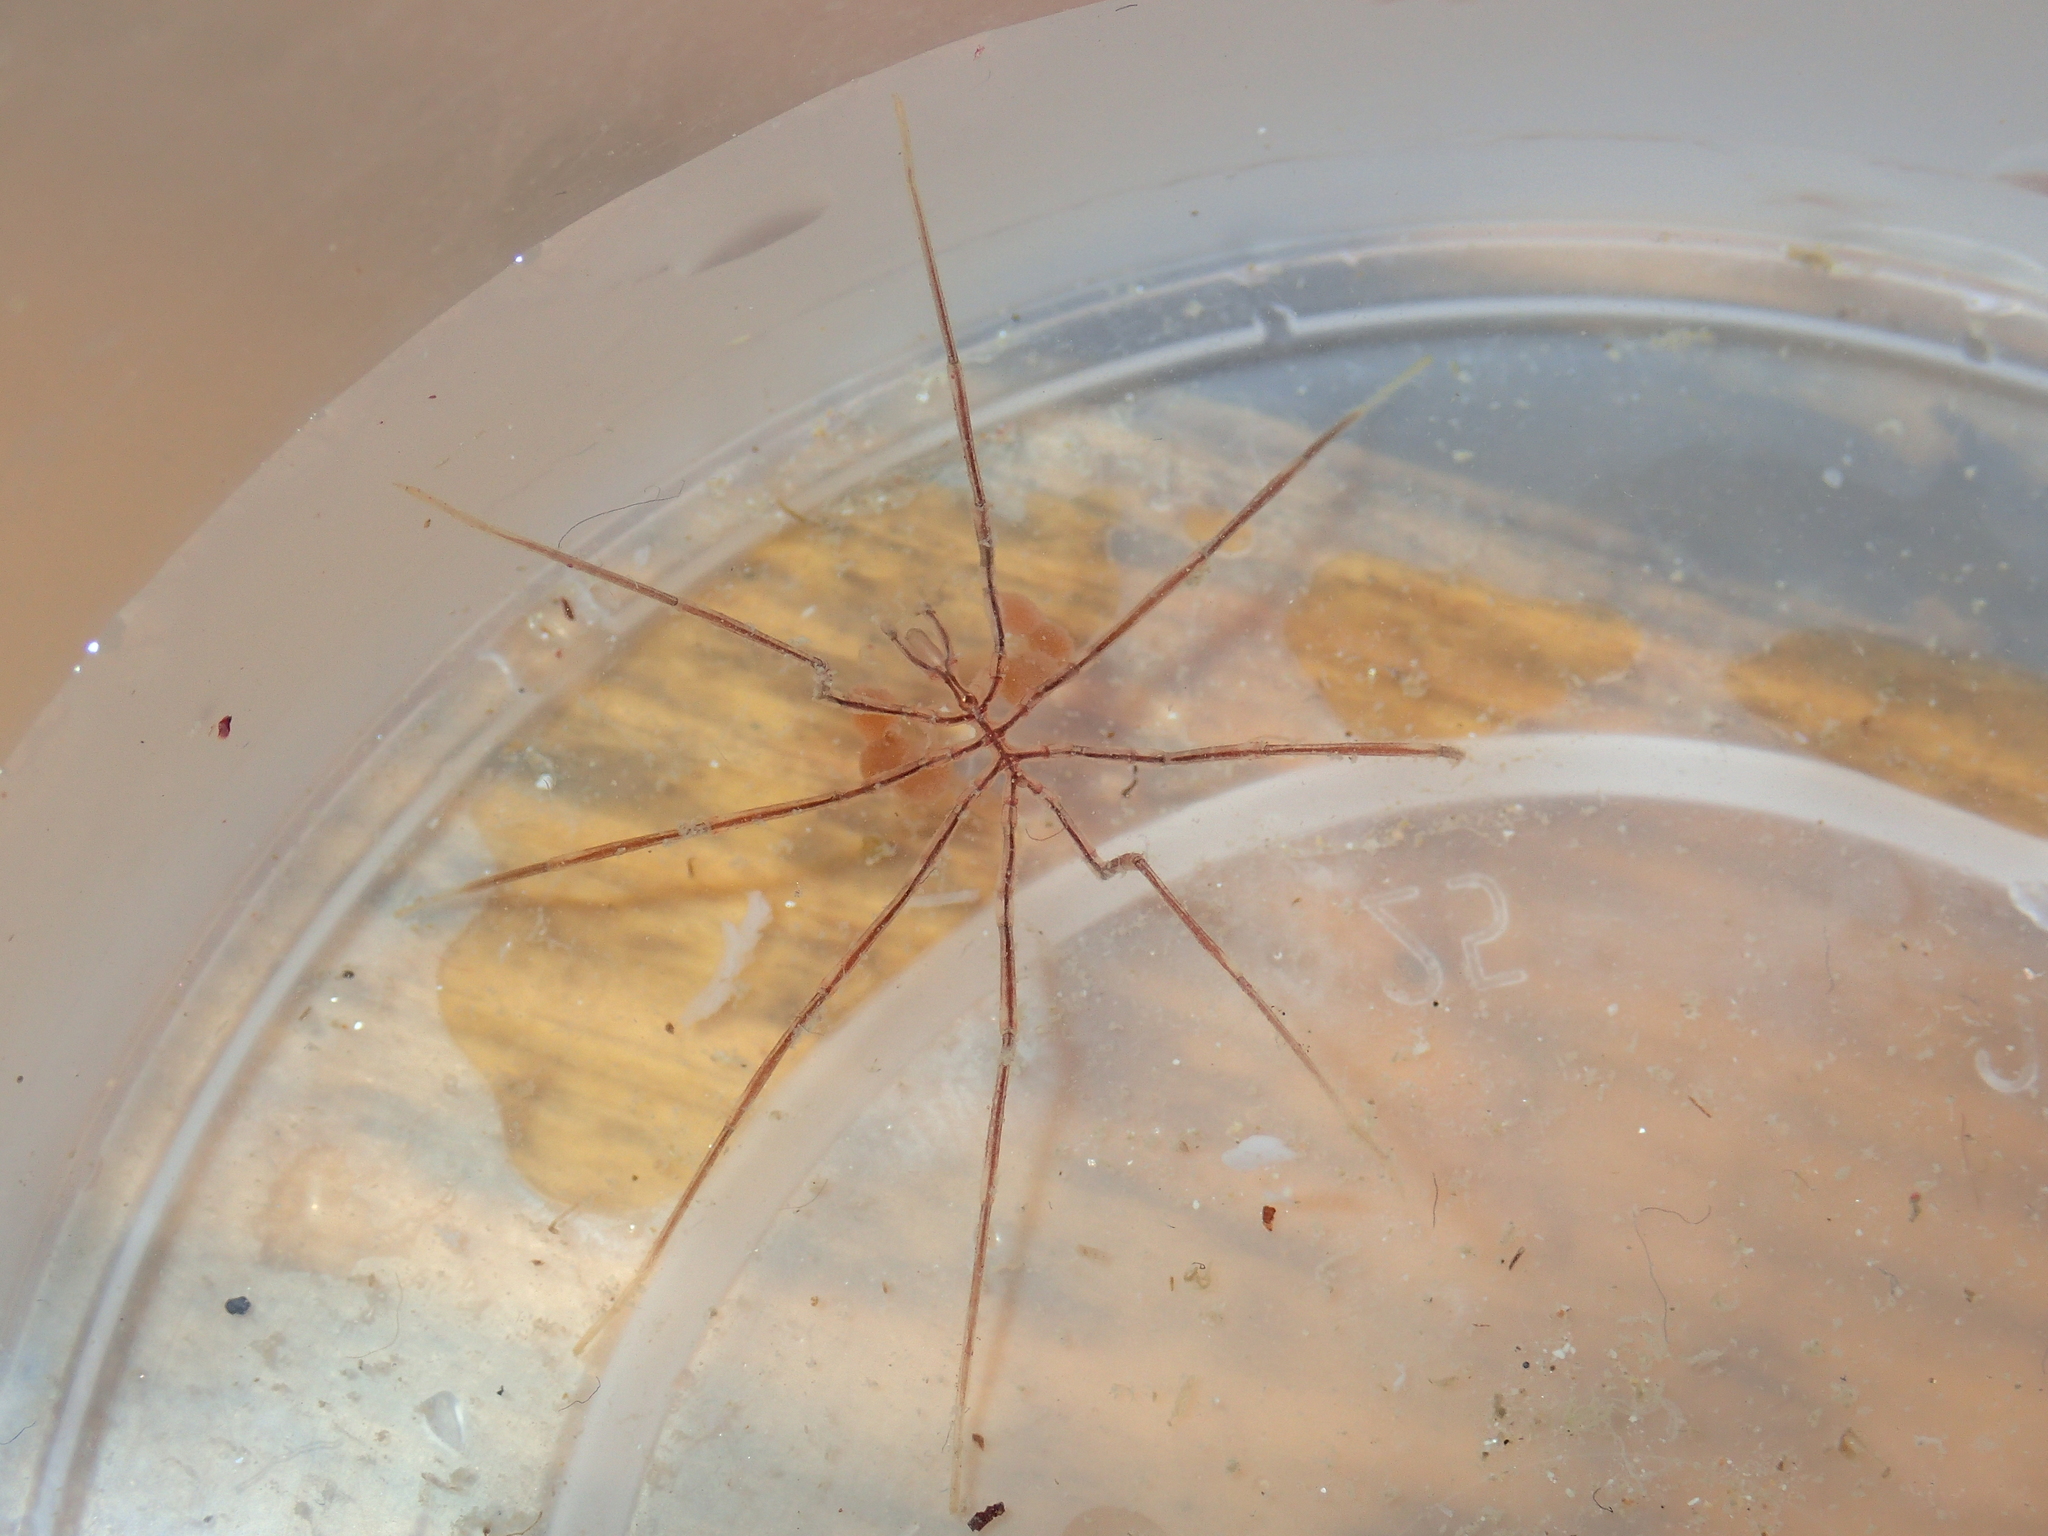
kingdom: Animalia
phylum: Arthropoda
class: Pycnogonida
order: Pantopoda
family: Nymphonidae
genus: Nymphon
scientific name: Nymphon gracile
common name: Gangly lancer
